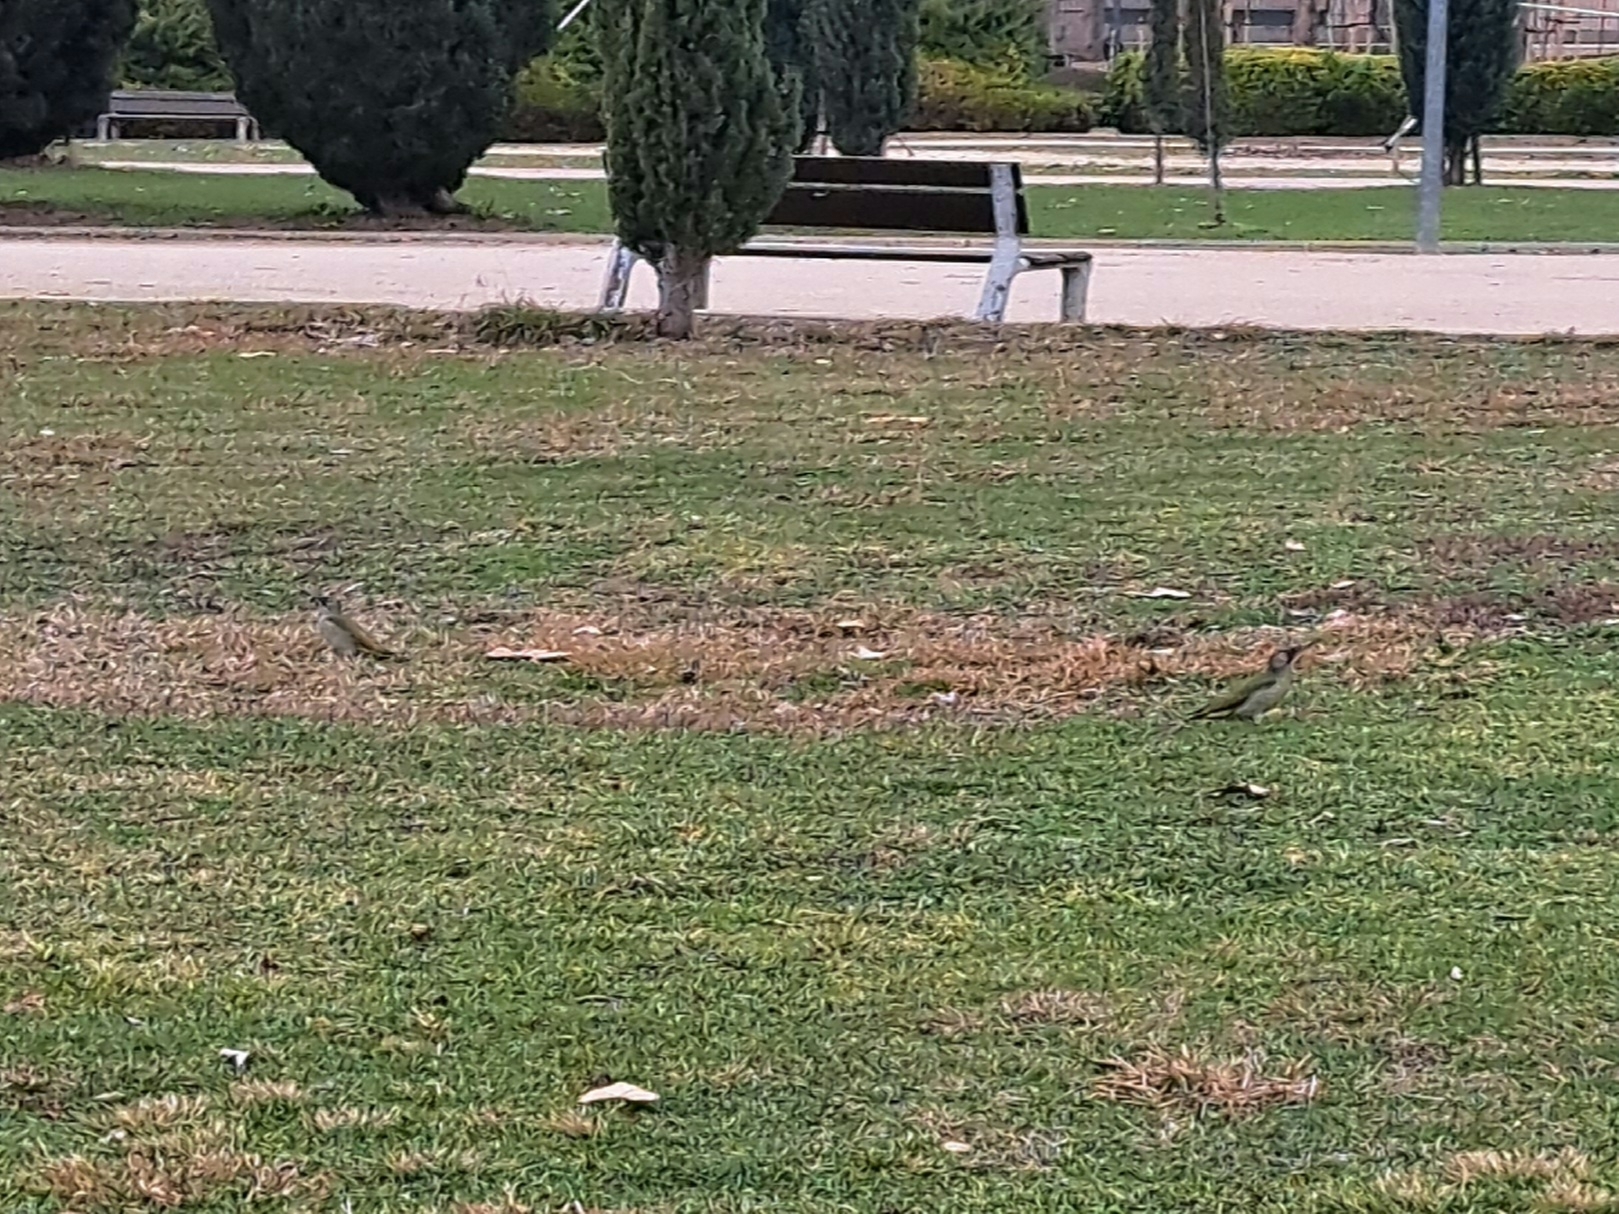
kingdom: Animalia
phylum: Chordata
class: Aves
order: Piciformes
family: Picidae
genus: Picus
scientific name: Picus sharpei
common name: Iberian green woodpecker
